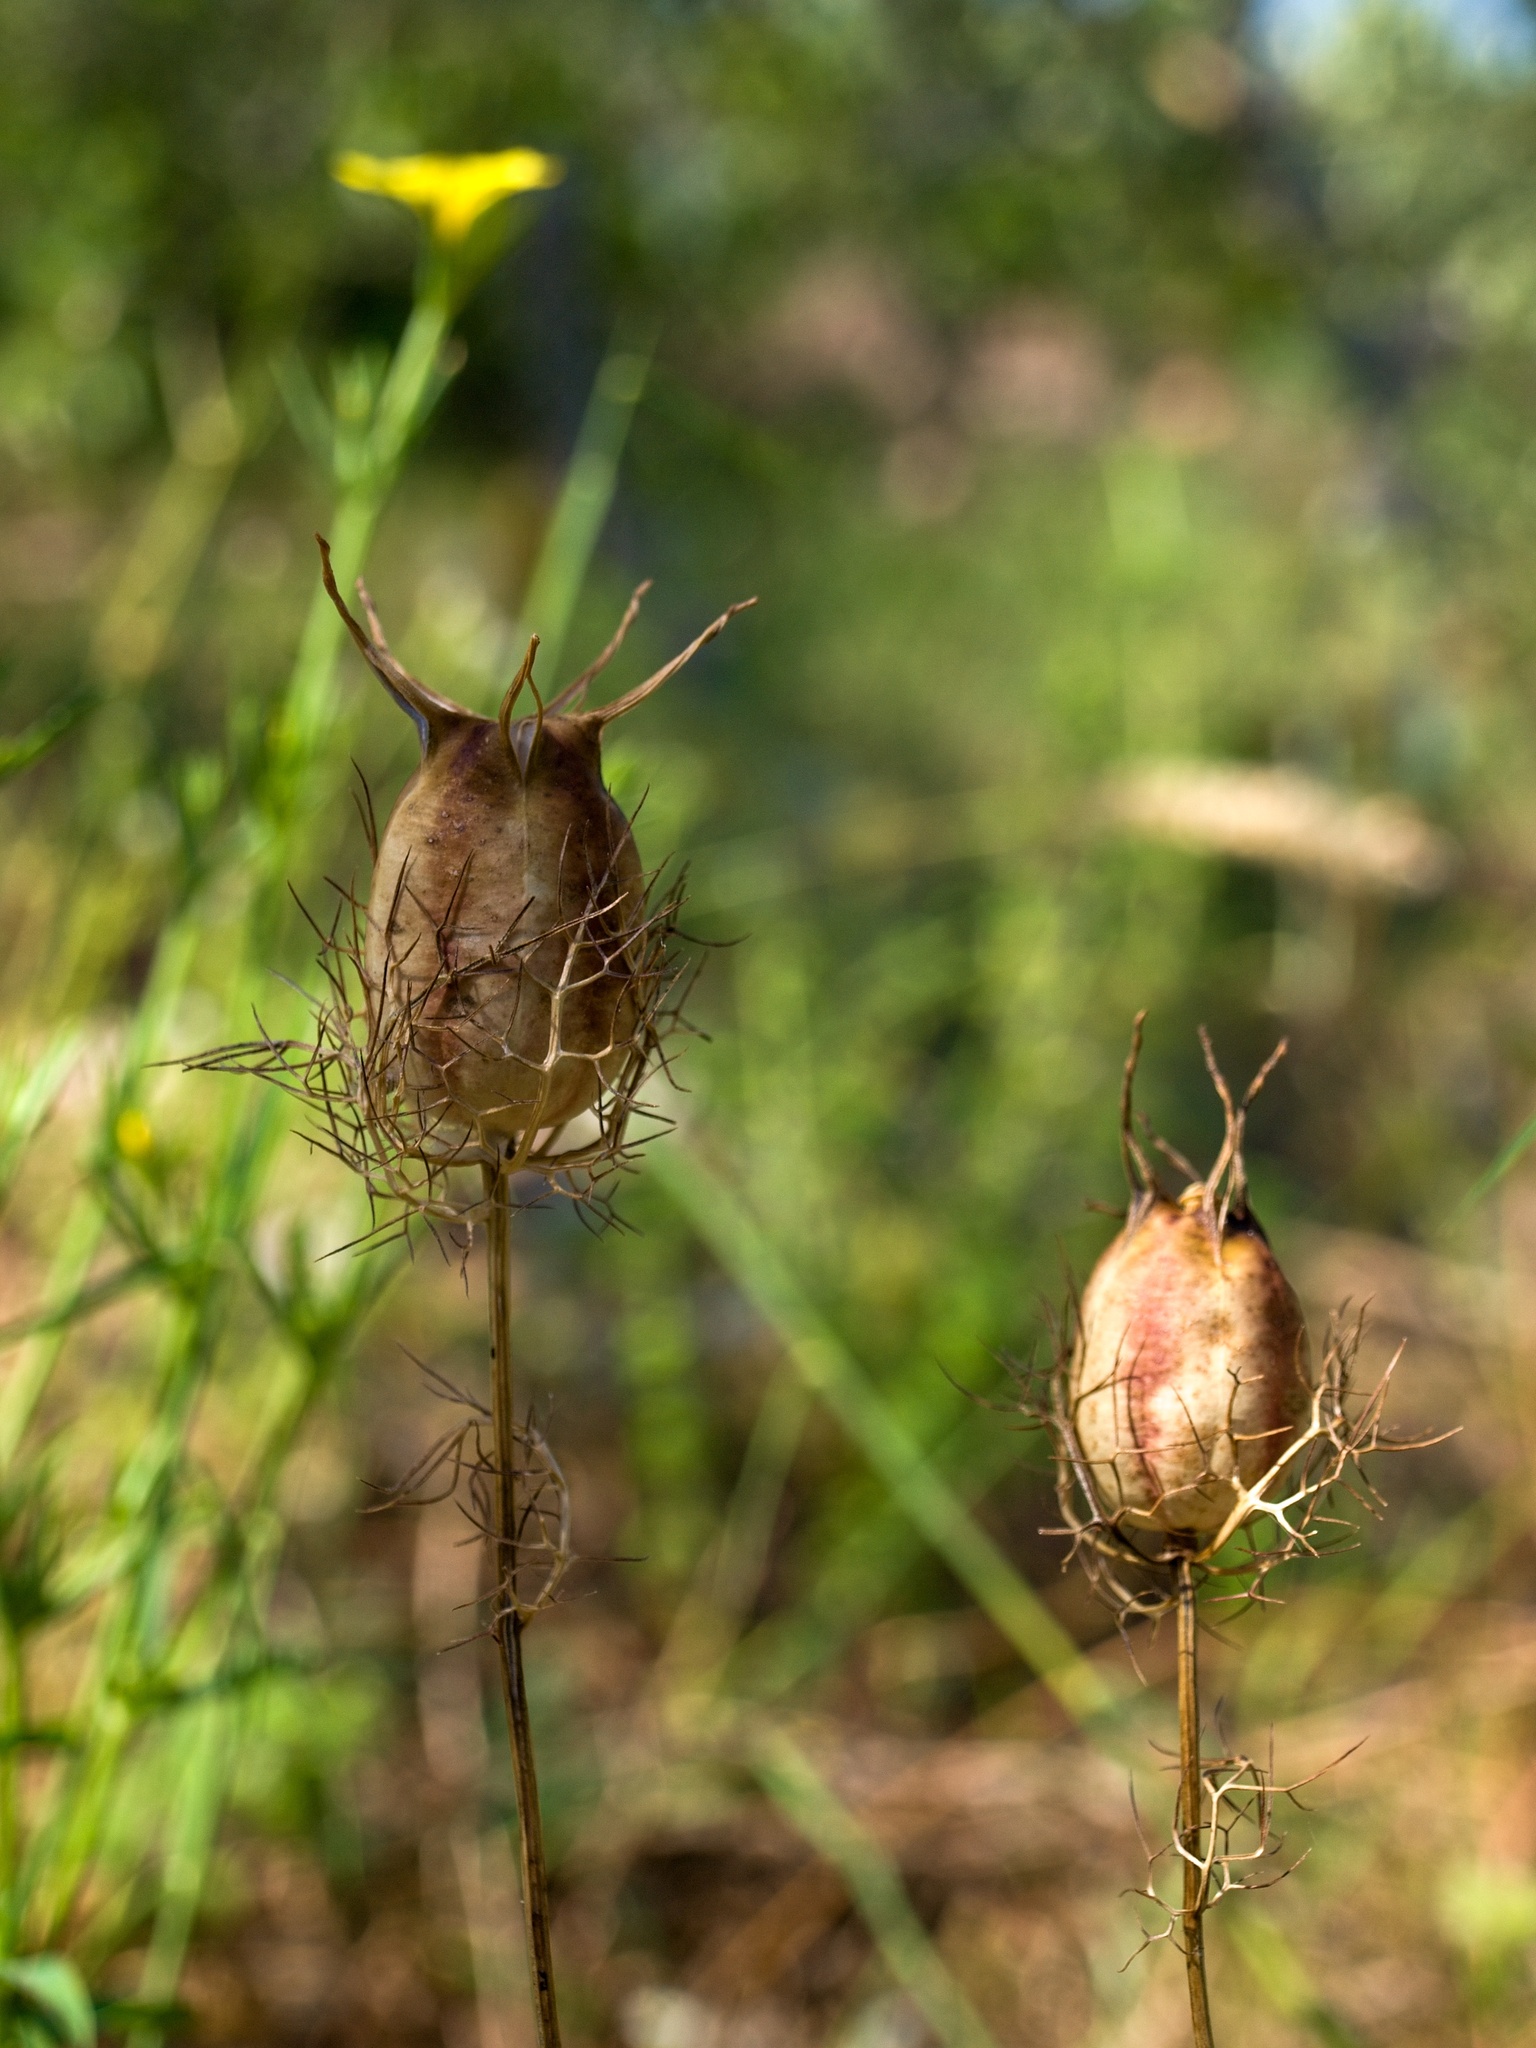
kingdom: Plantae
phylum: Tracheophyta
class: Magnoliopsida
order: Ranunculales
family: Ranunculaceae
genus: Nigella
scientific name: Nigella damascena
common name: Love-in-a-mist
